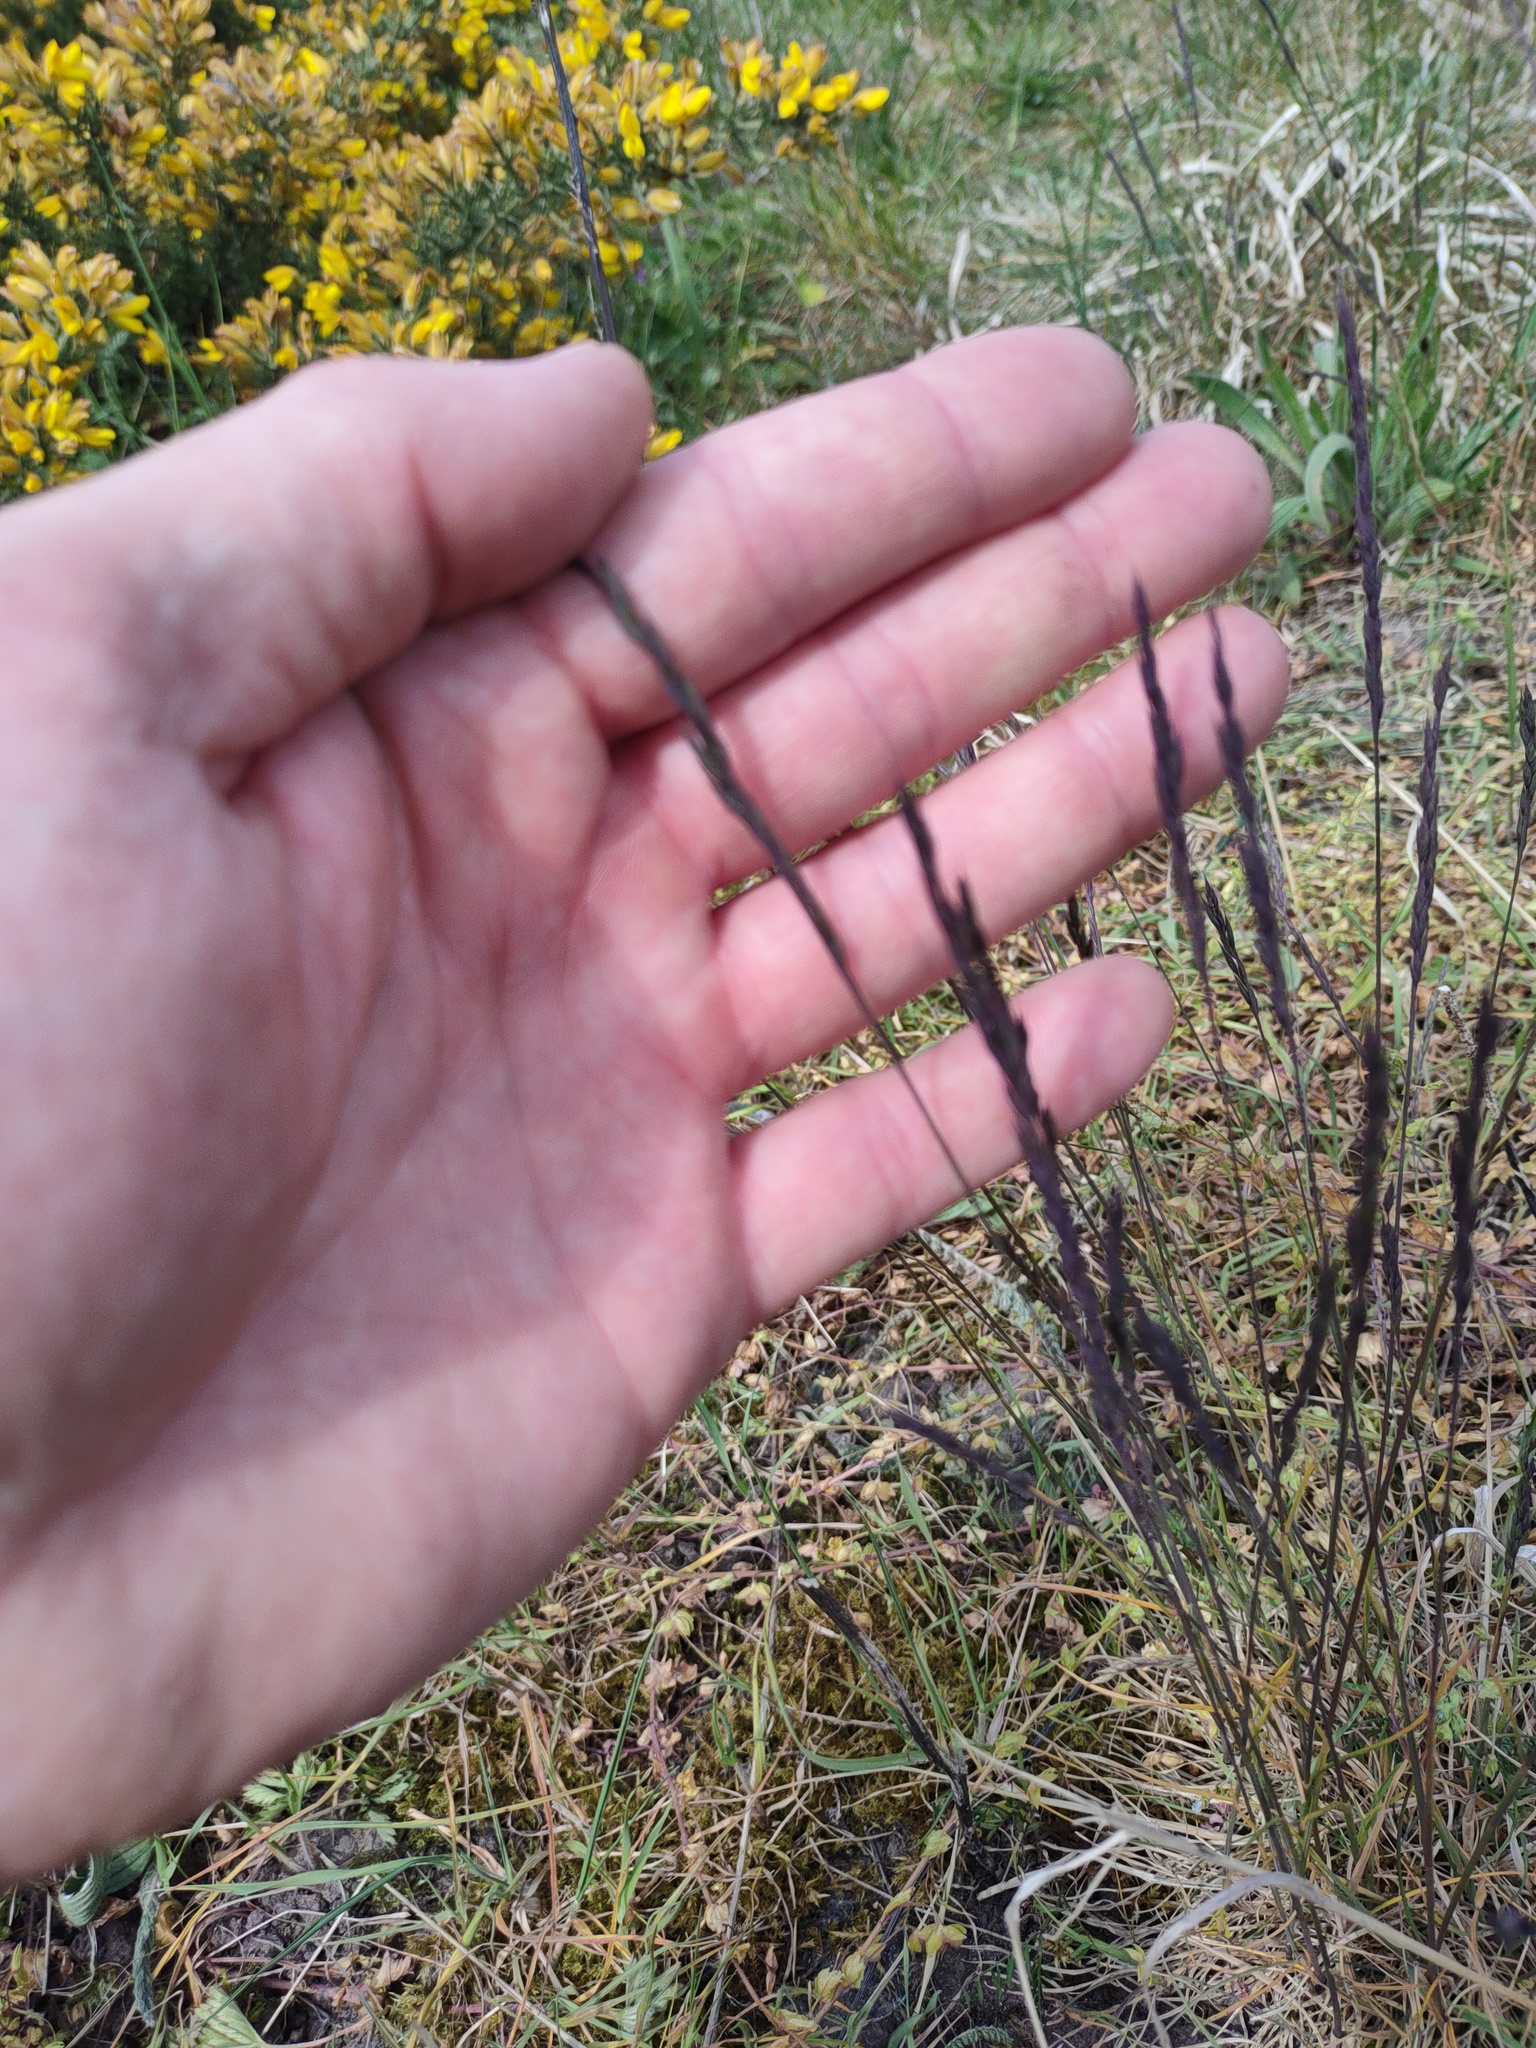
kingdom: Plantae
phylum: Tracheophyta
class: Liliopsida
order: Poales
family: Poaceae
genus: Festuca
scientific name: Festuca rubra
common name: Red fescue
